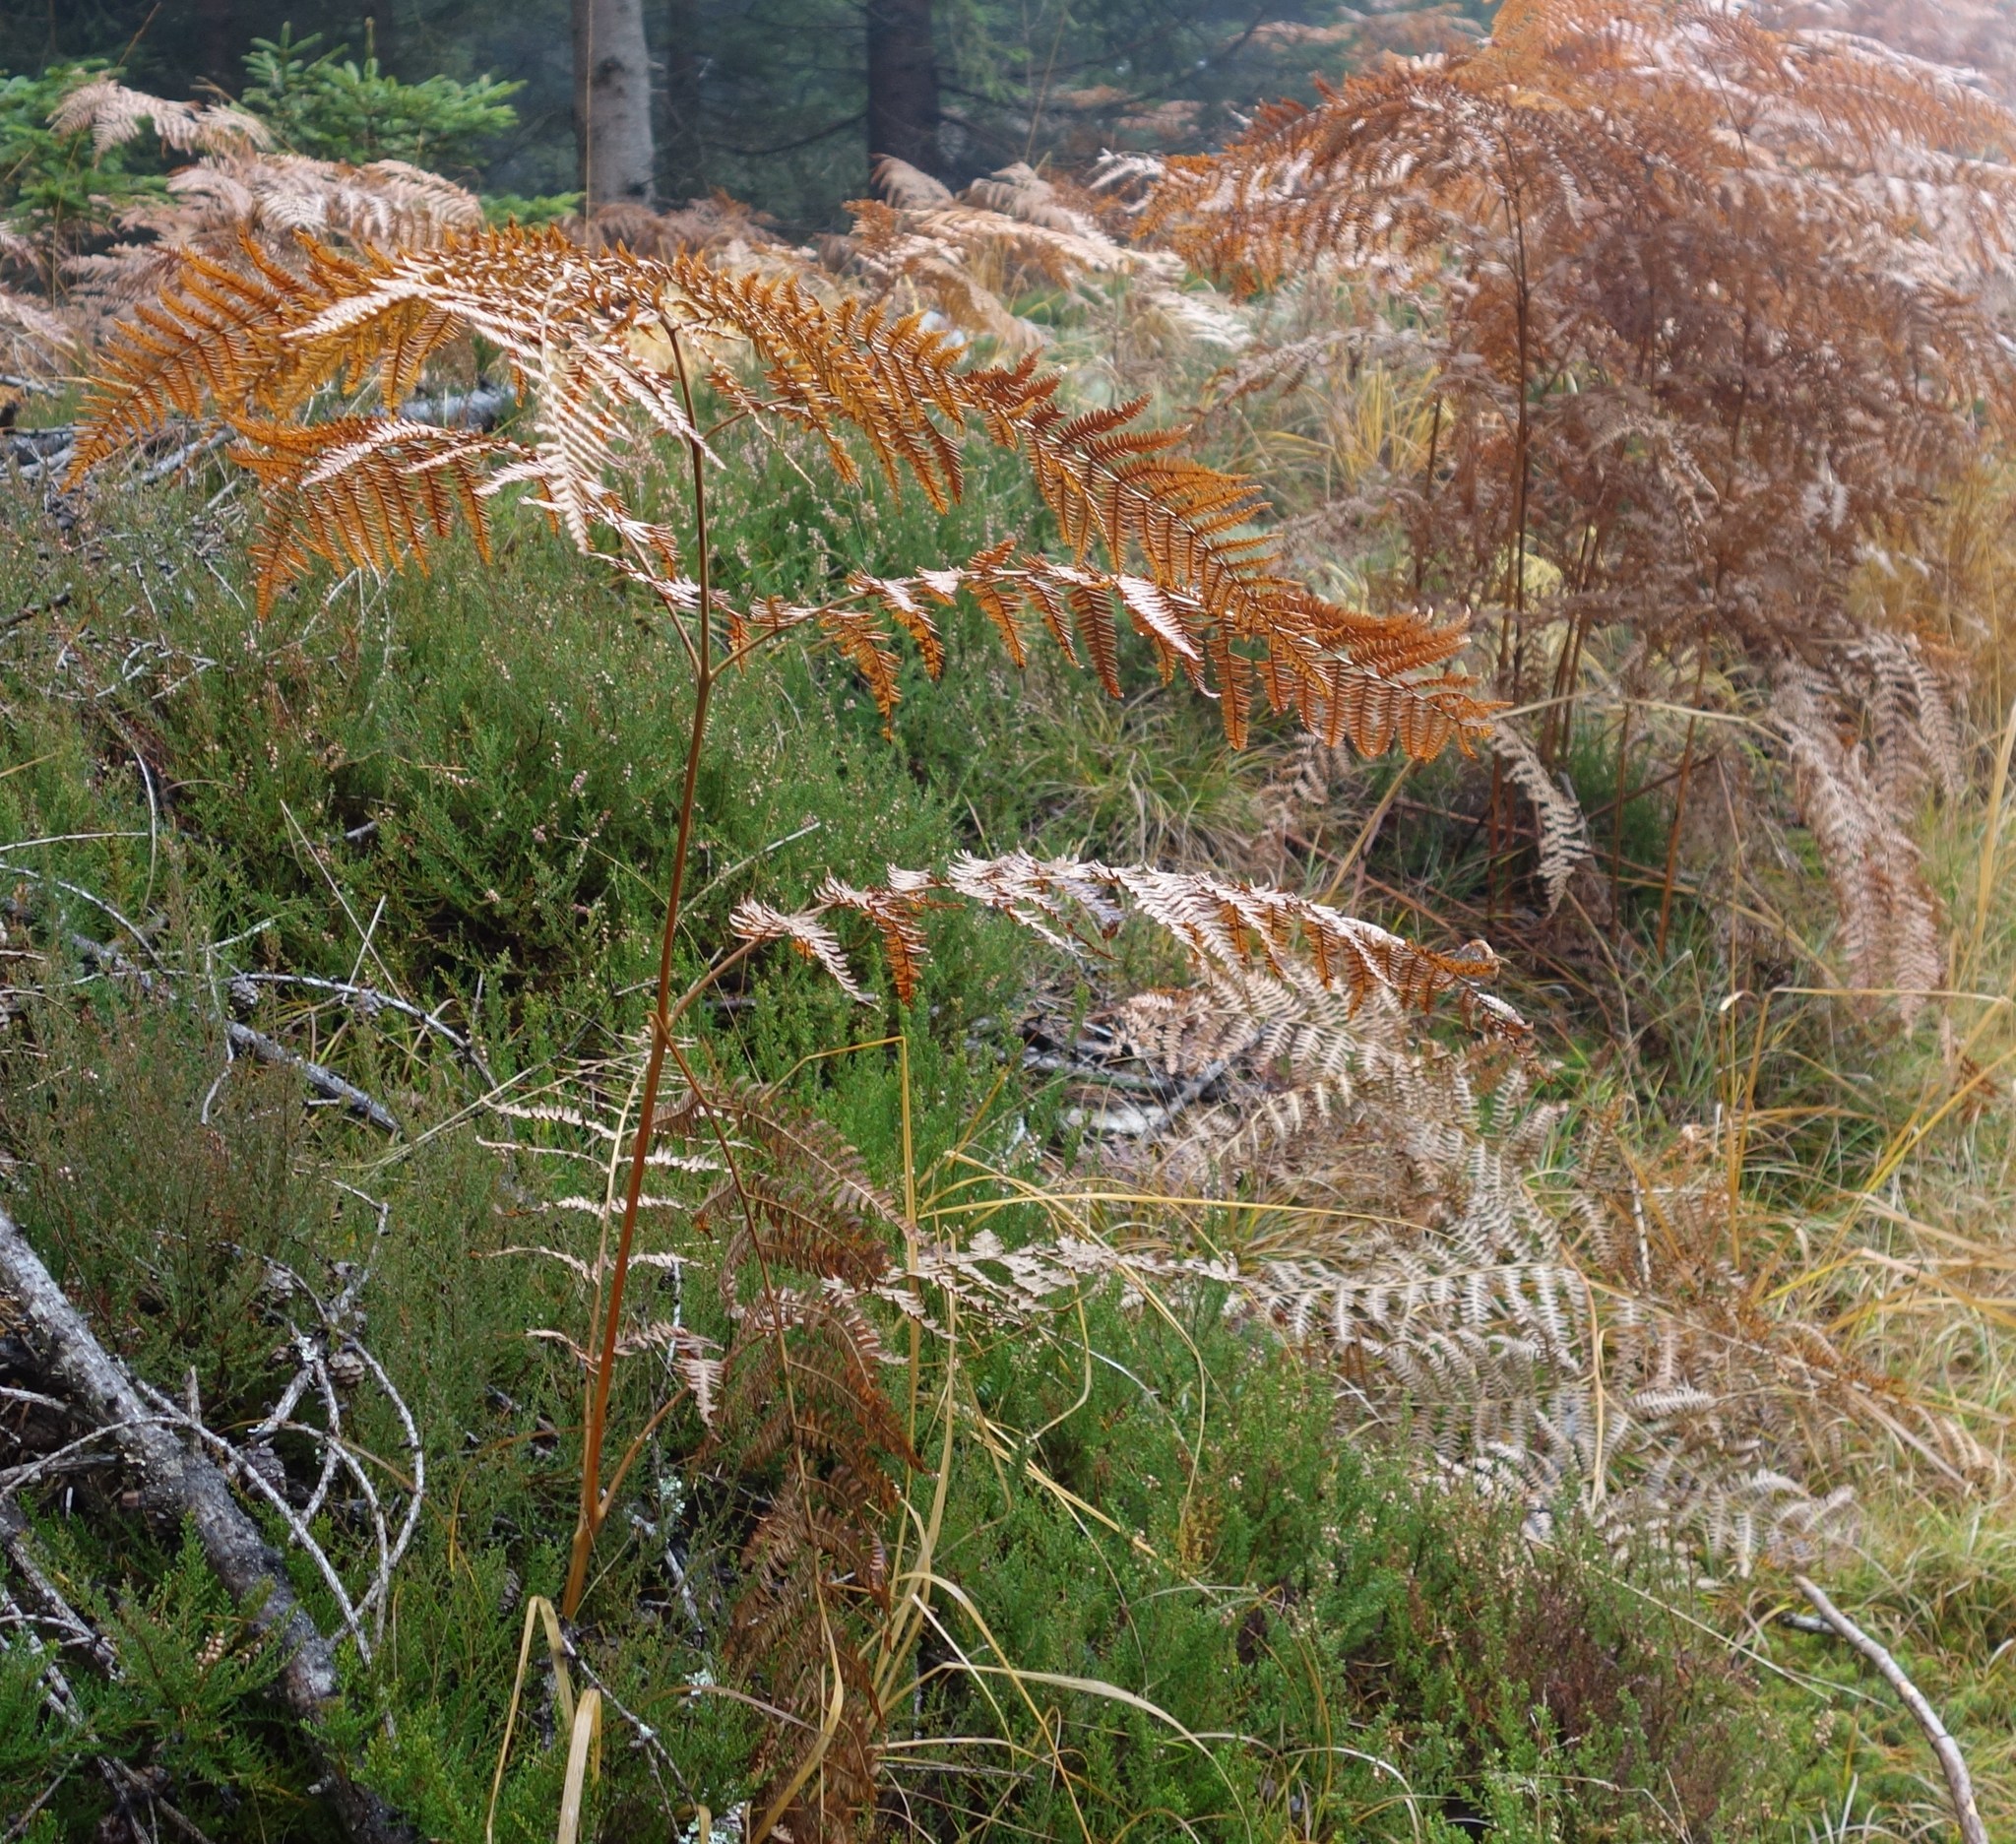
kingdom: Plantae
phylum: Tracheophyta
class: Polypodiopsida
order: Polypodiales
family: Dennstaedtiaceae
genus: Pteridium
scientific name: Pteridium aquilinum
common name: Bracken
